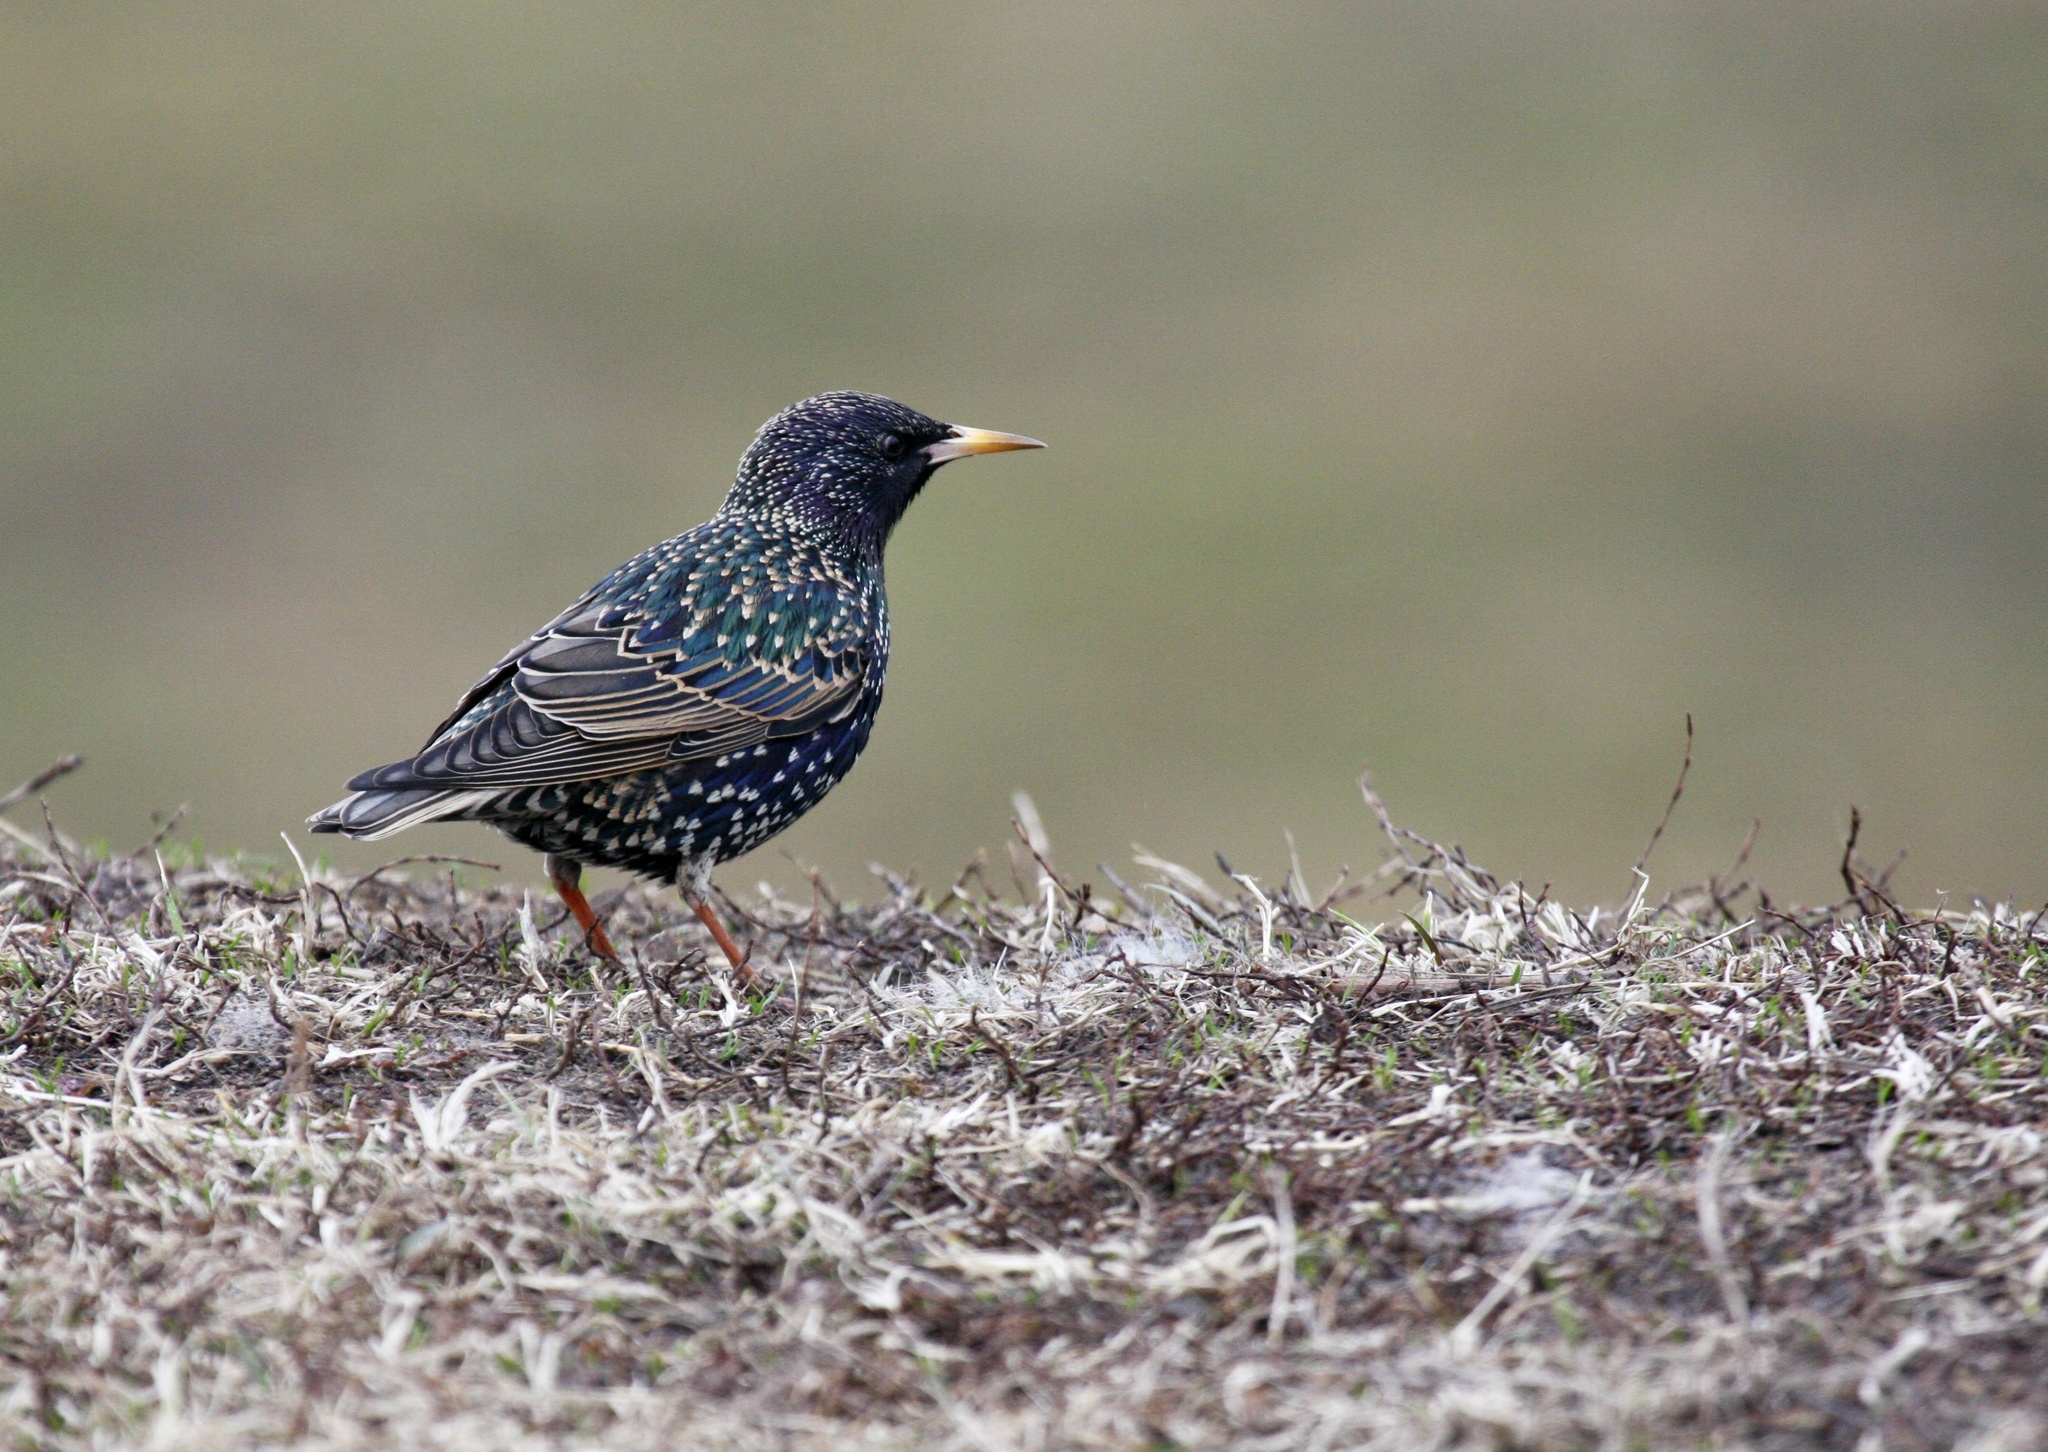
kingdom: Animalia
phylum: Chordata
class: Aves
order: Passeriformes
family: Sturnidae
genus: Sturnus
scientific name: Sturnus vulgaris
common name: Common starling
